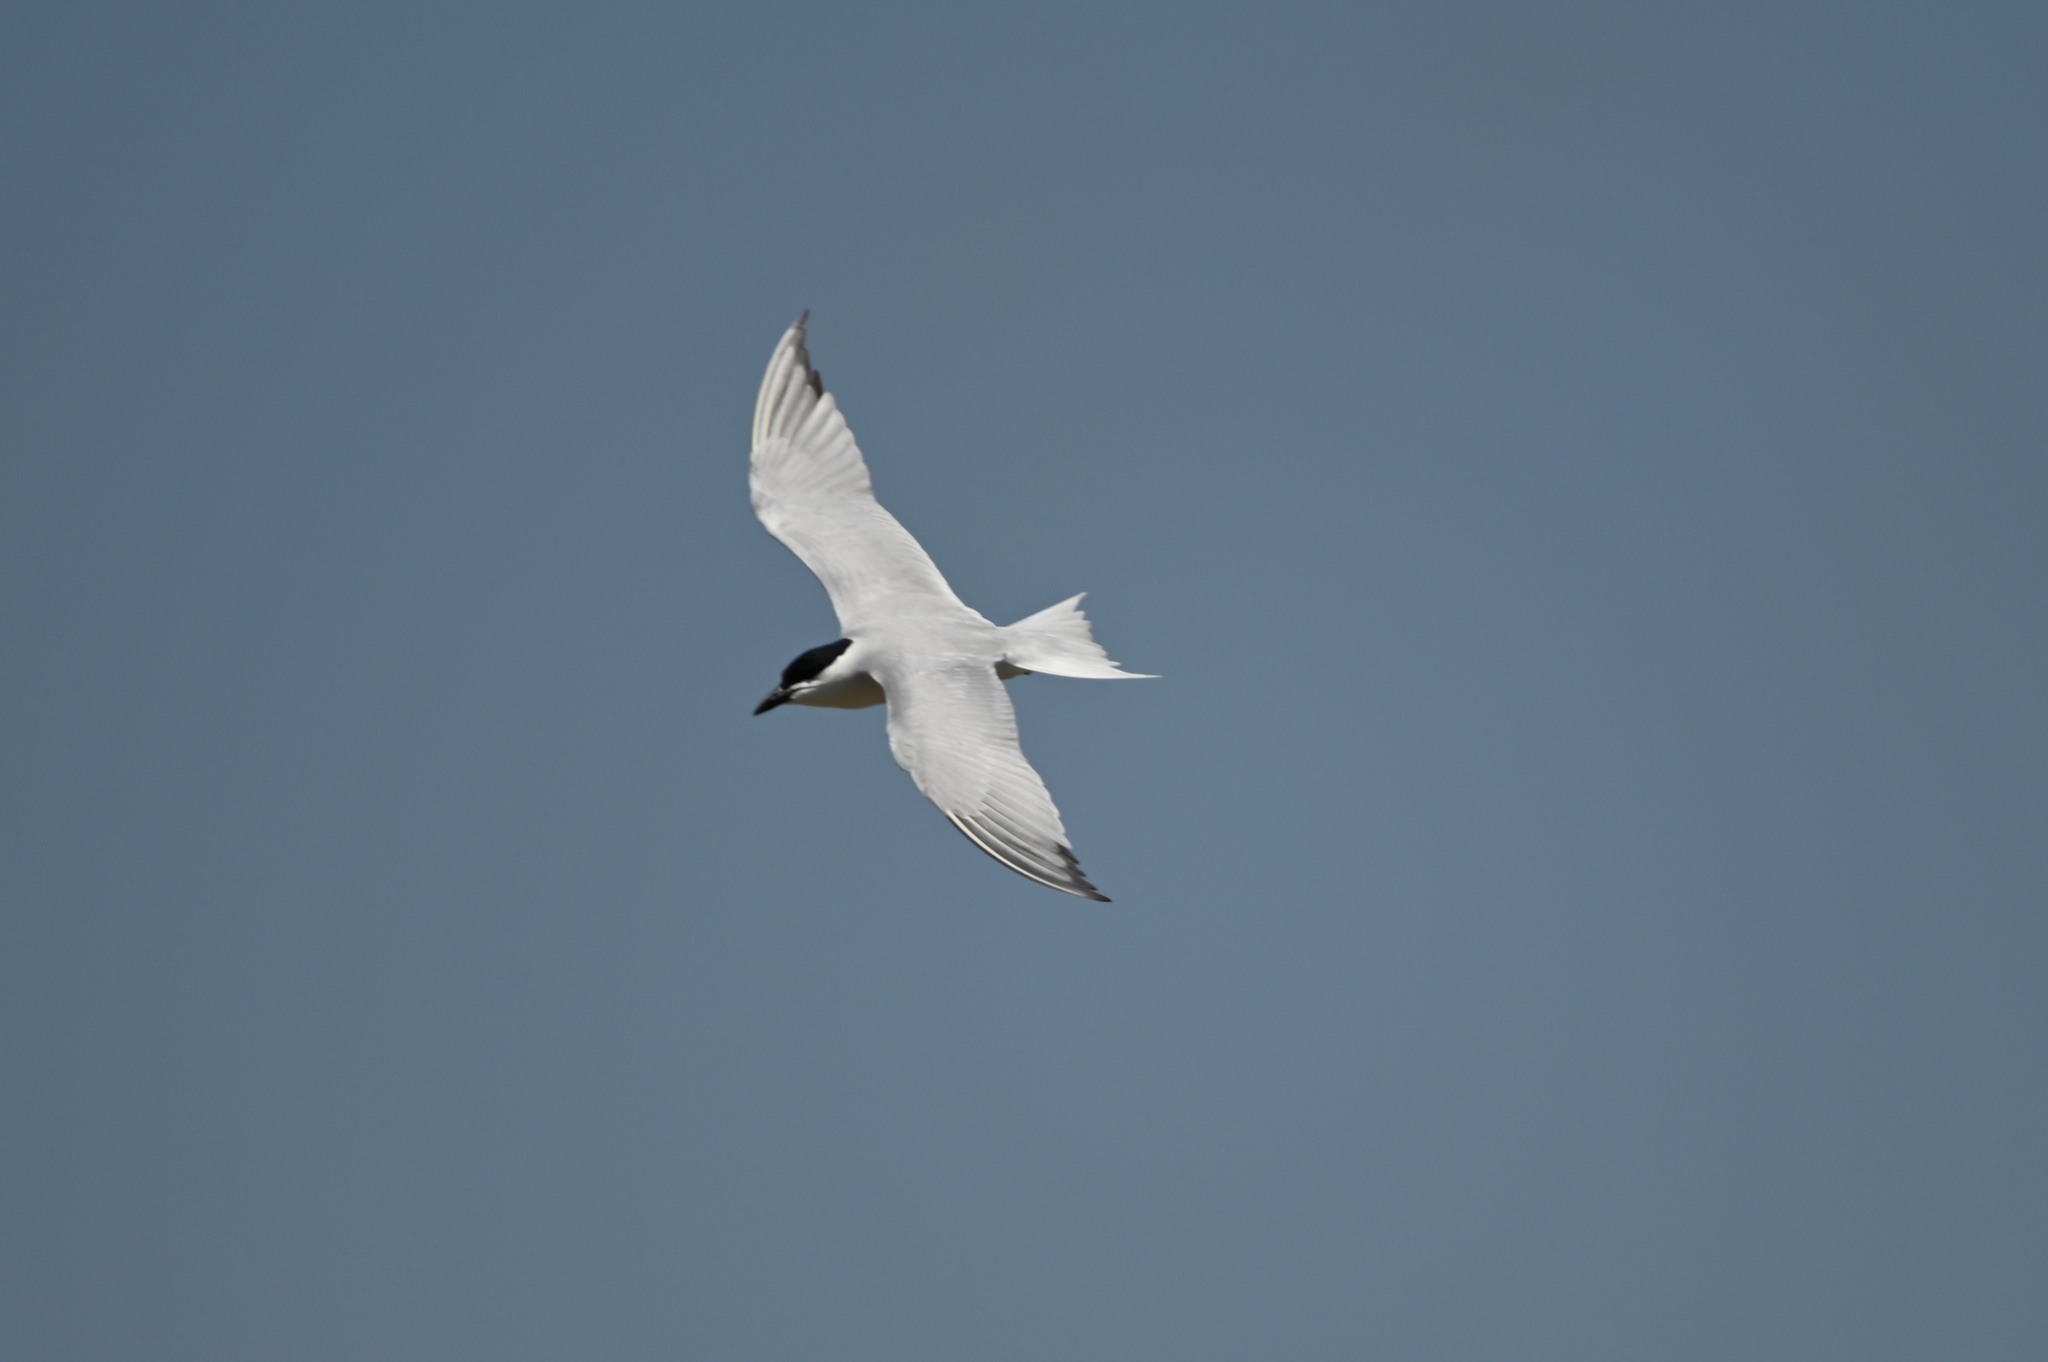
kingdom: Animalia
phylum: Chordata
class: Aves
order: Charadriiformes
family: Laridae
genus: Gelochelidon
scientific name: Gelochelidon nilotica
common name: Gull-billed tern
